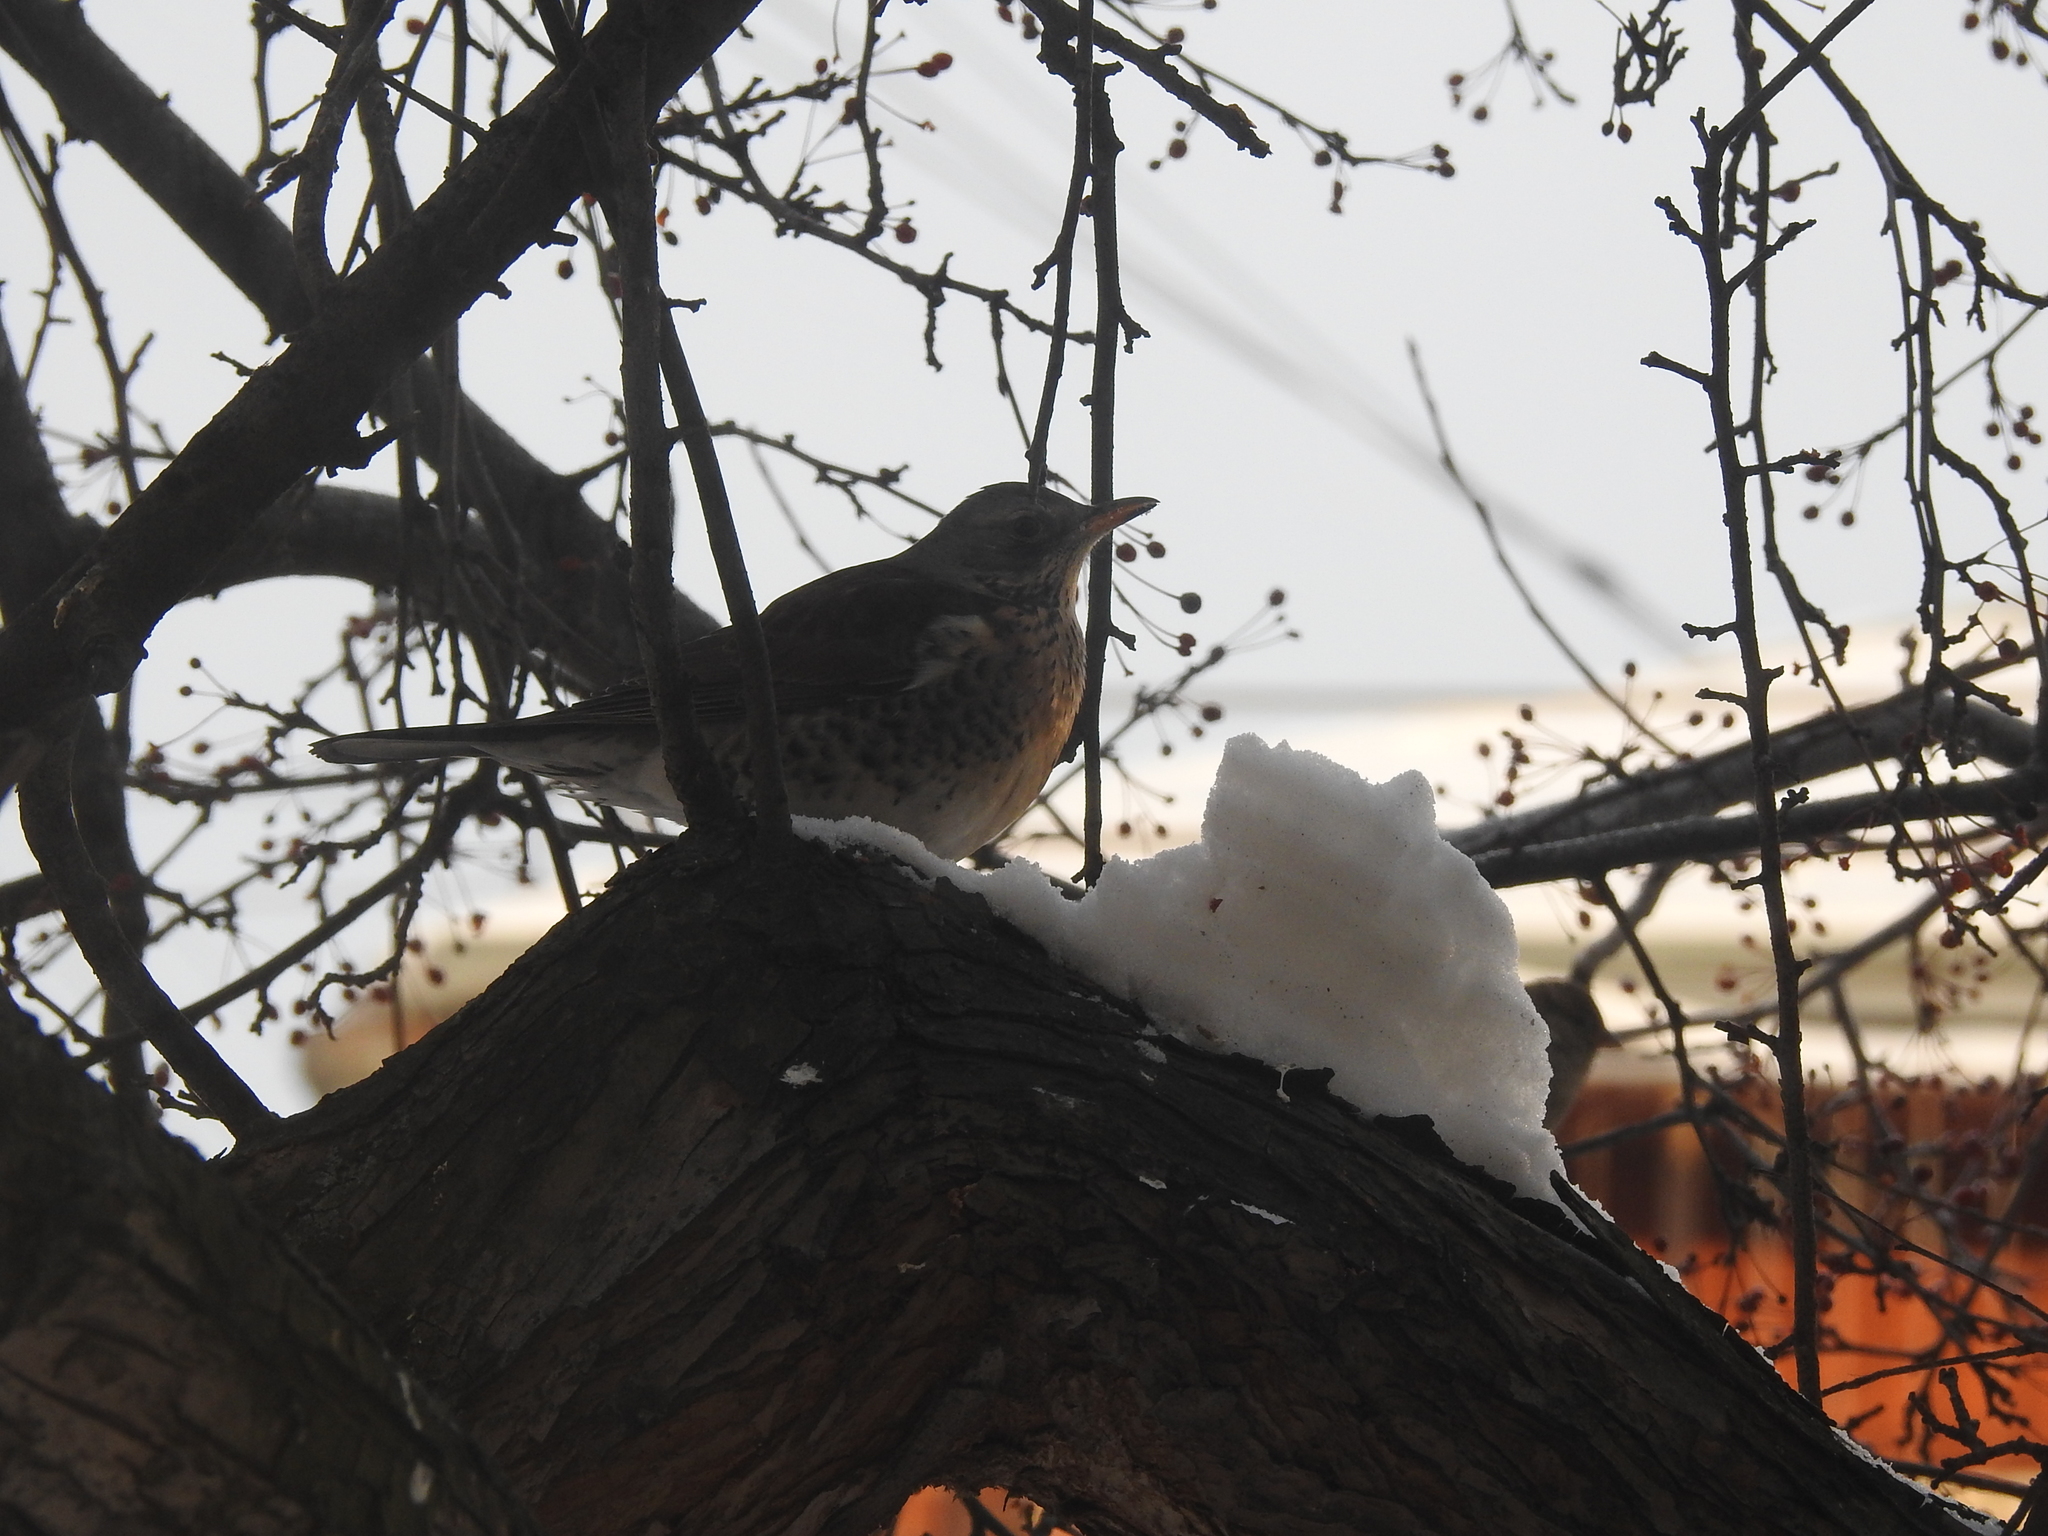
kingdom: Animalia
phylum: Chordata
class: Aves
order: Passeriformes
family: Turdidae
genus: Turdus
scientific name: Turdus pilaris
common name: Fieldfare
